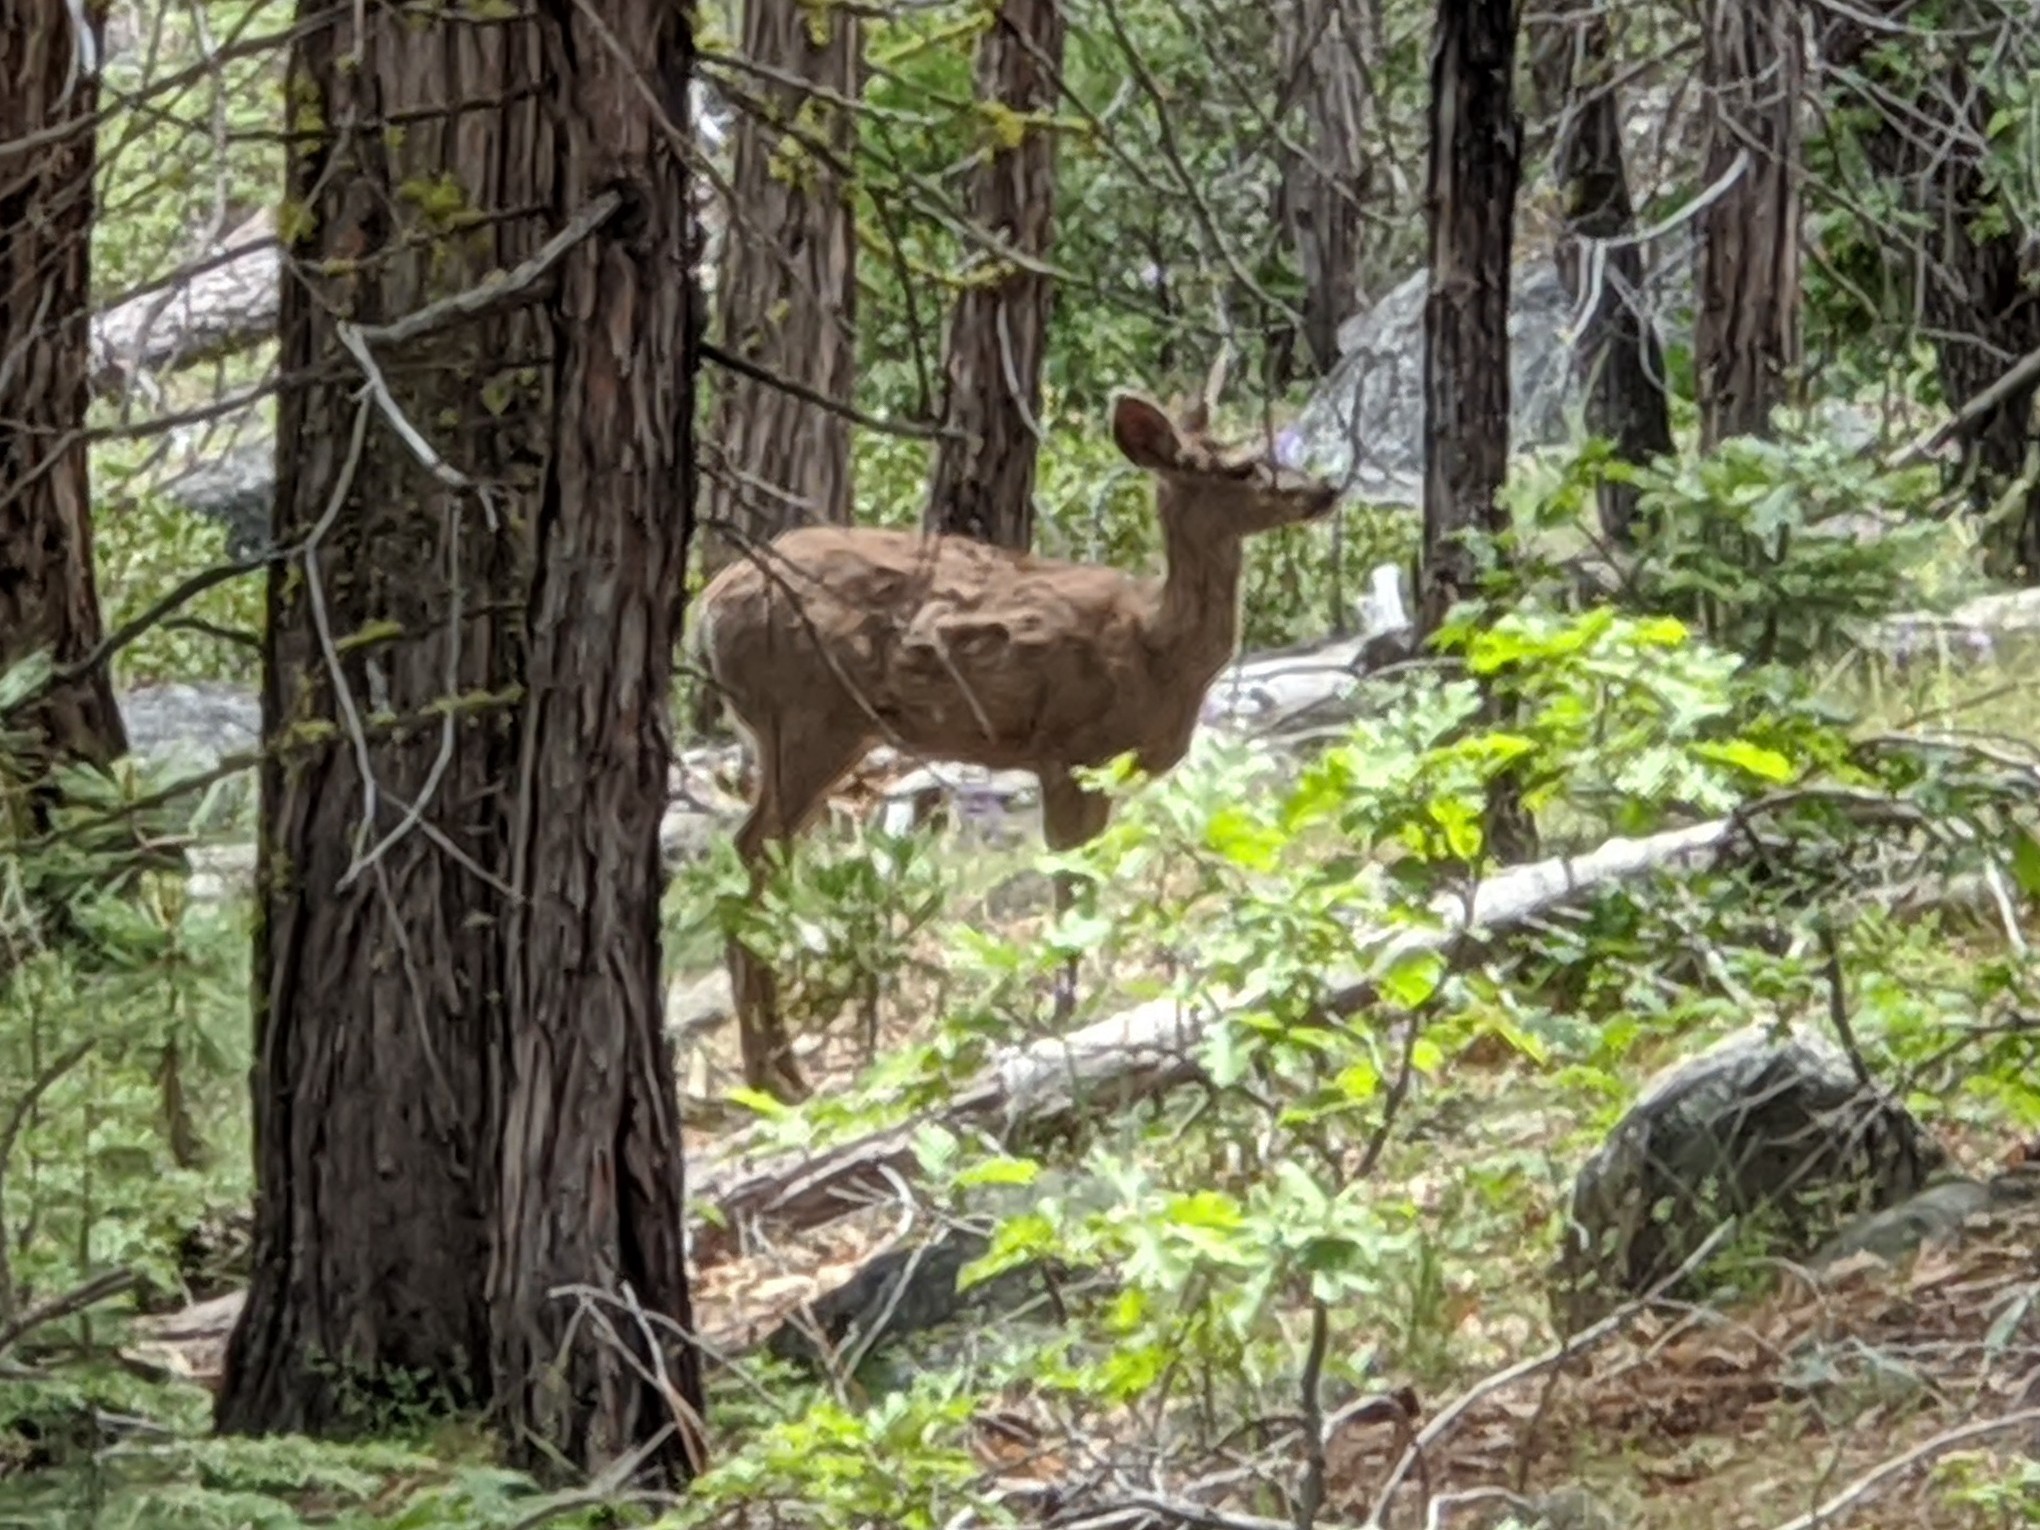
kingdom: Animalia
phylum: Chordata
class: Mammalia
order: Artiodactyla
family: Cervidae
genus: Odocoileus
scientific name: Odocoileus hemionus
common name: Mule deer
